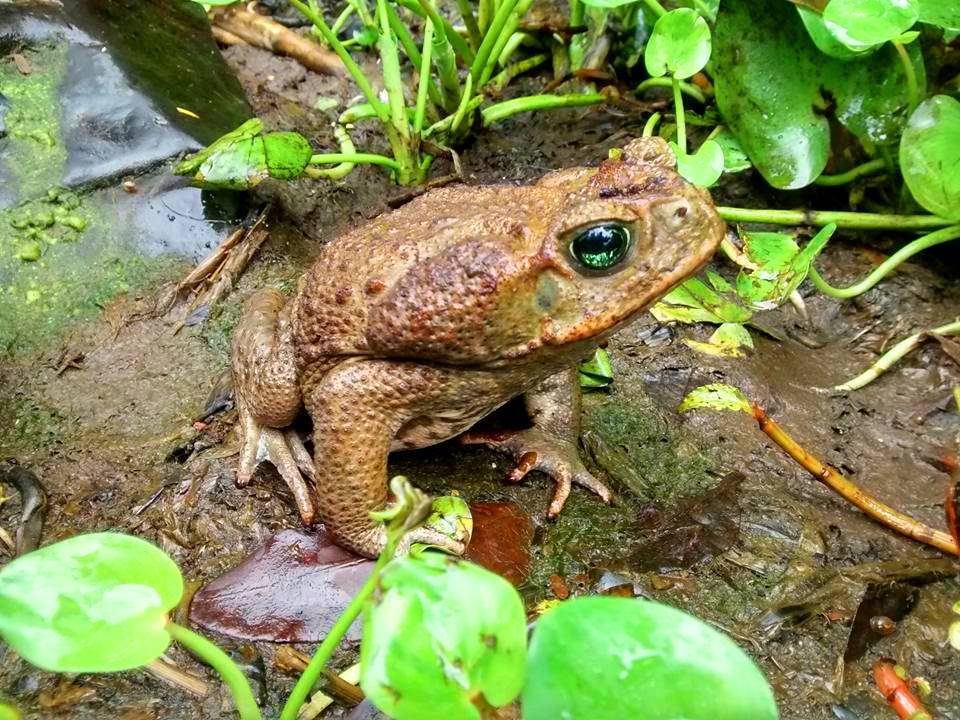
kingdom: Animalia
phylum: Chordata
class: Amphibia
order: Anura
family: Bufonidae
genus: Rhinella
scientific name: Rhinella horribilis
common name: Mesoamerican cane toad
